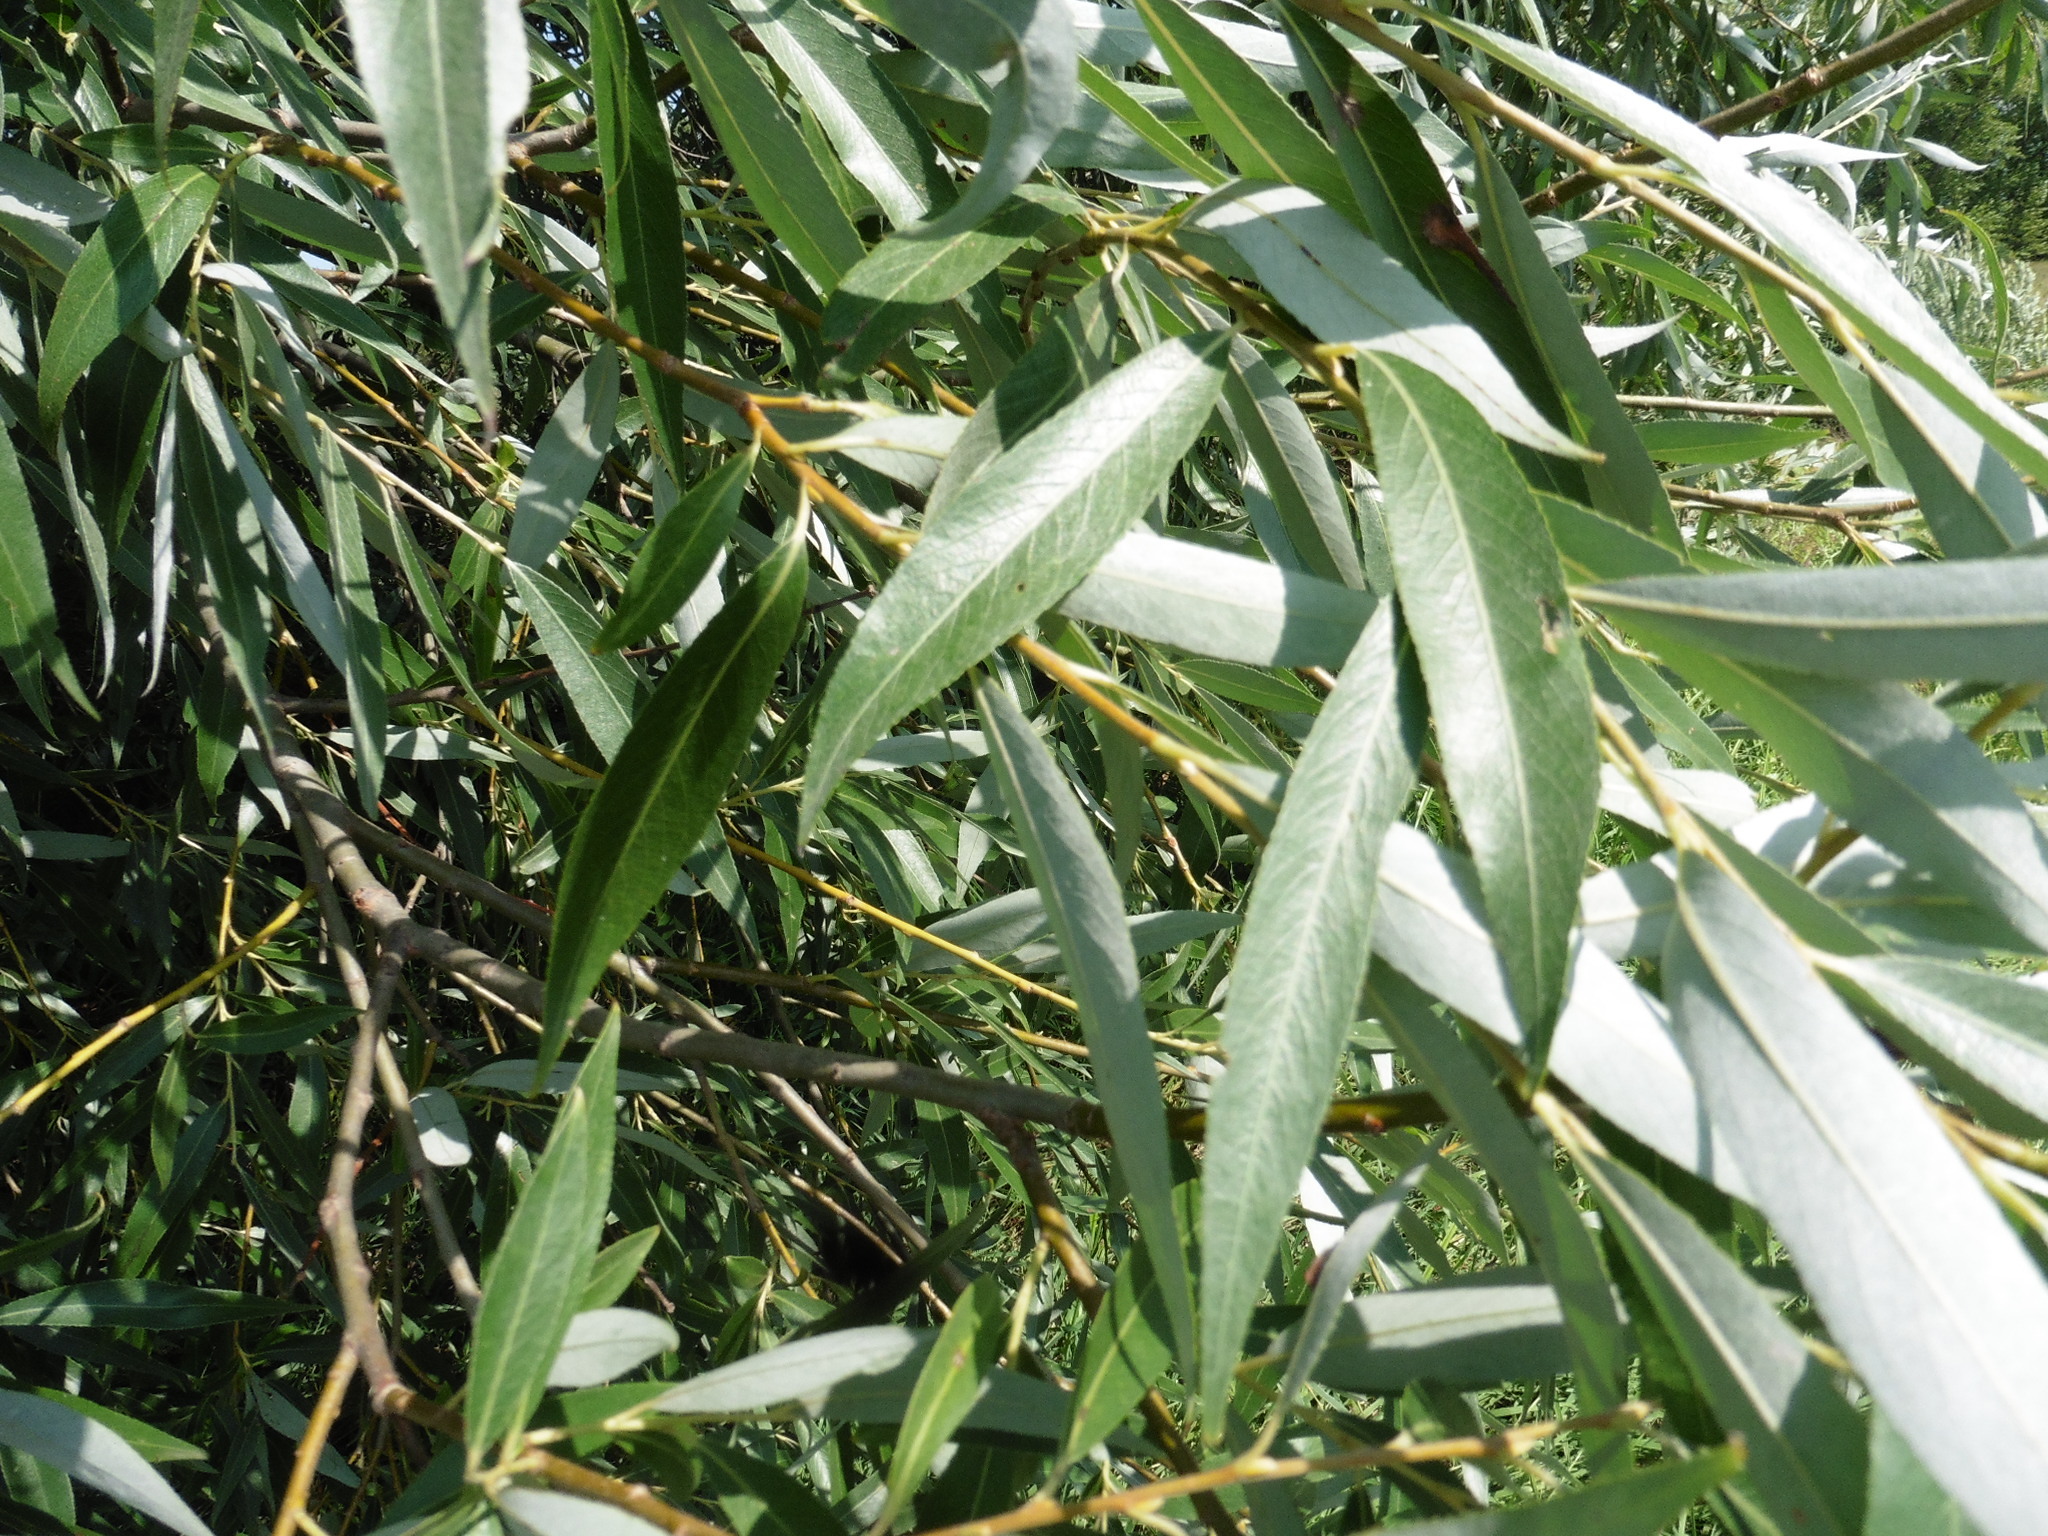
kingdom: Plantae
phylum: Tracheophyta
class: Magnoliopsida
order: Malpighiales
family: Salicaceae
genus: Salix
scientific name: Salix alba
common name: White willow
